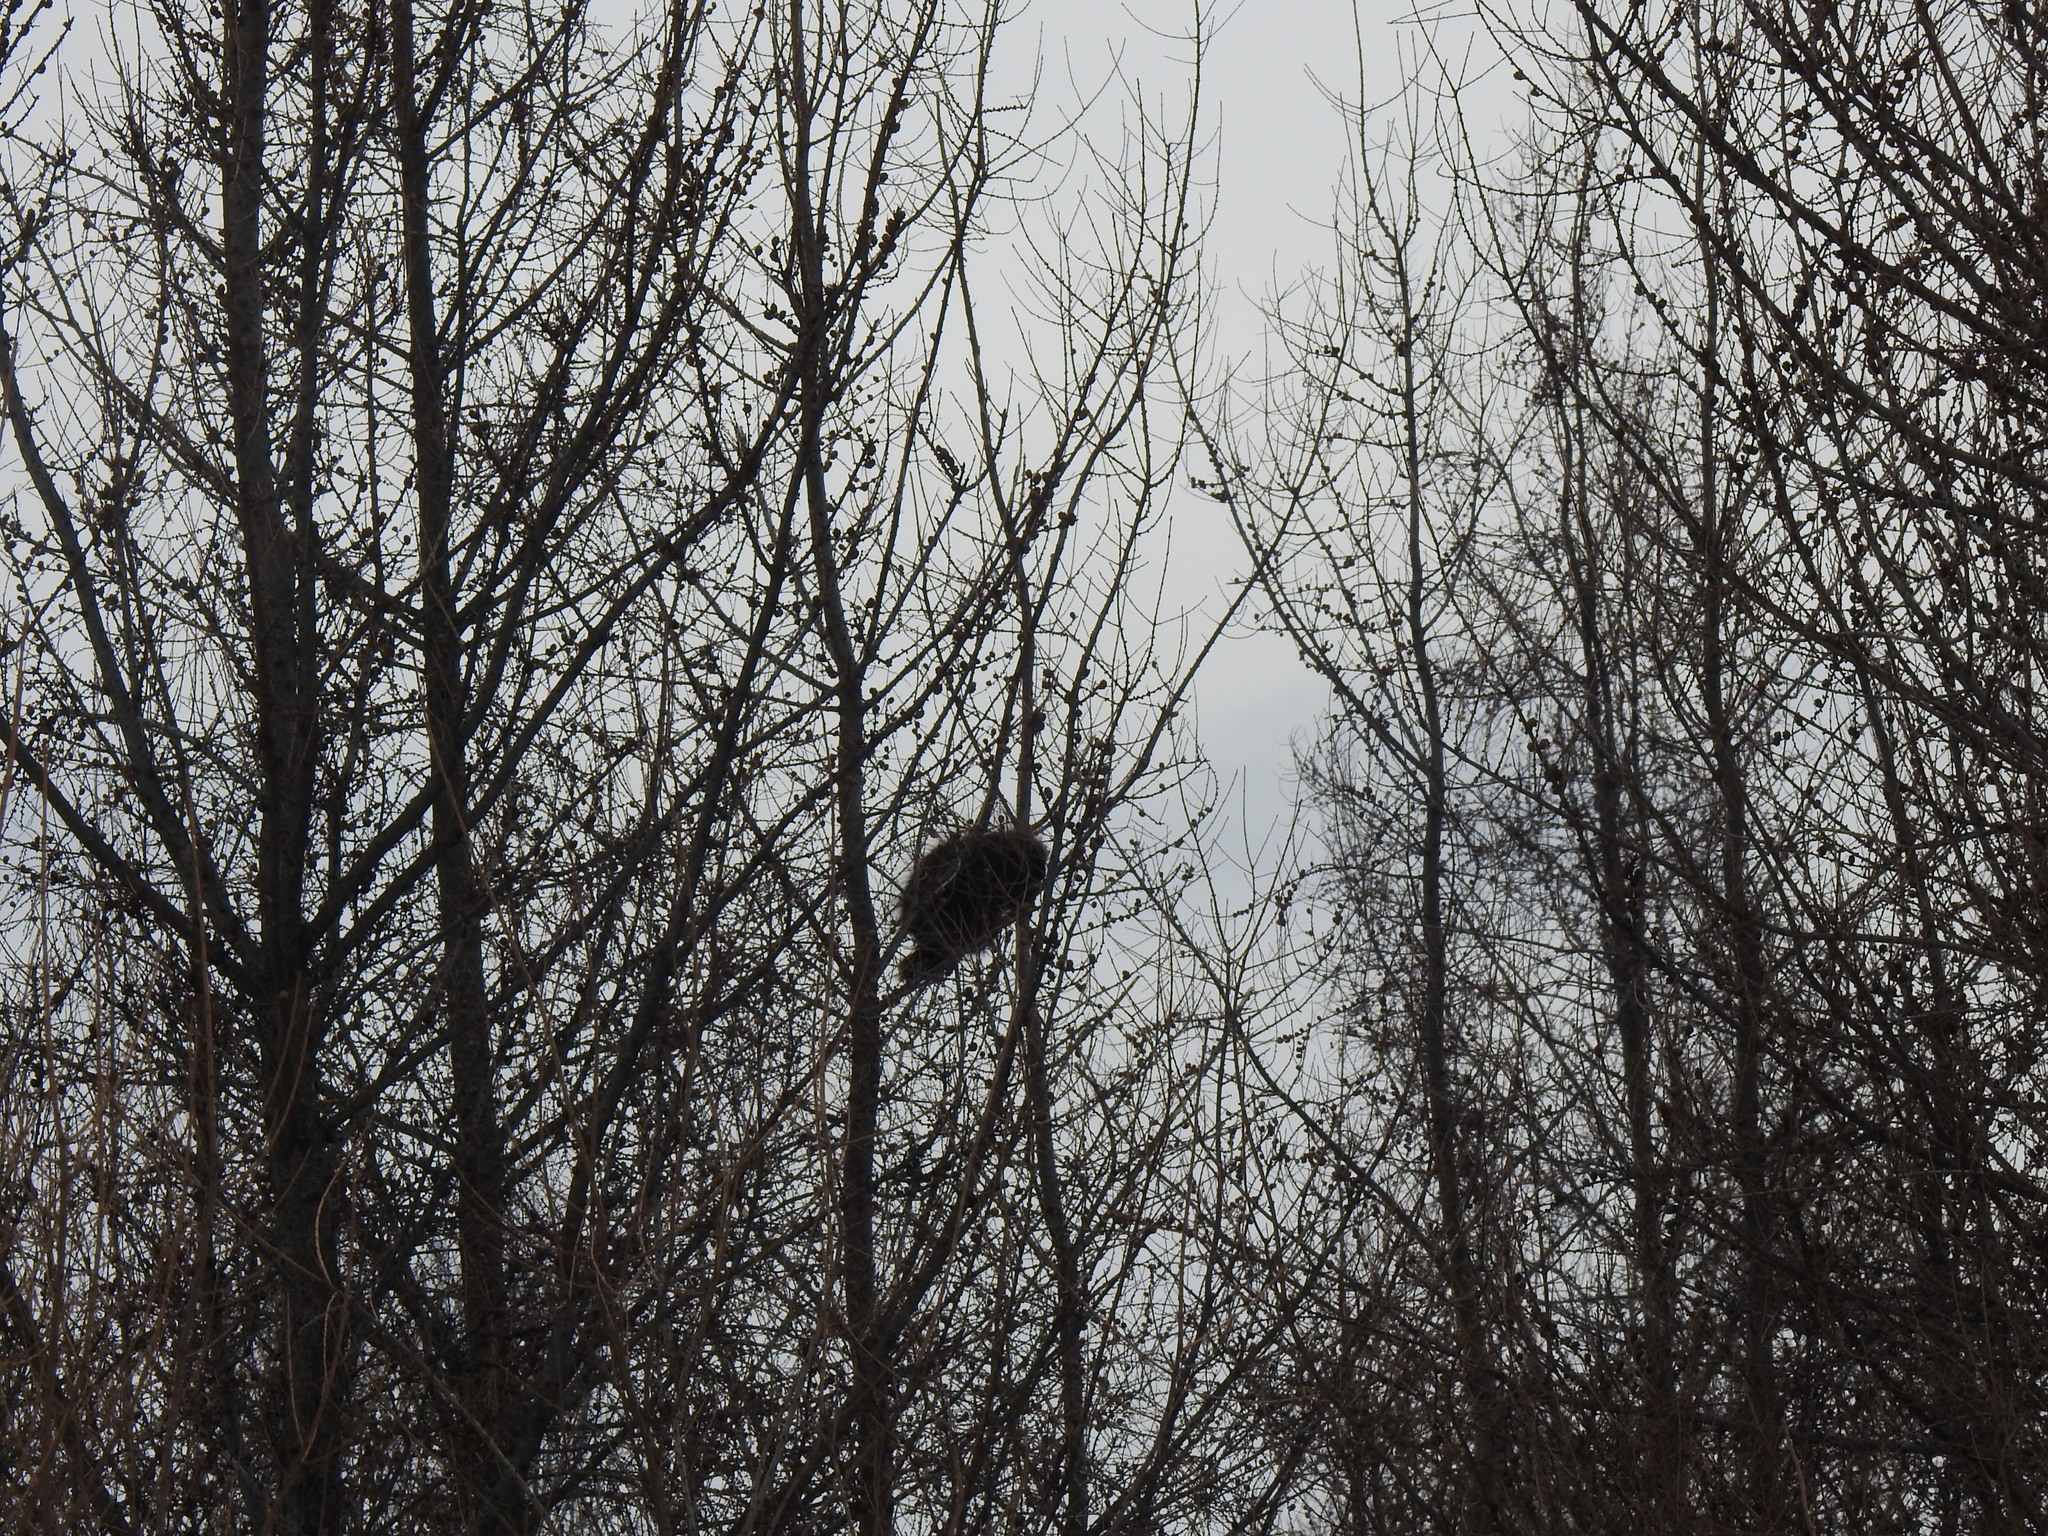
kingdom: Animalia
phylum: Chordata
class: Mammalia
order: Rodentia
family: Erethizontidae
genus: Erethizon
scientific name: Erethizon dorsatus
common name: North american porcupine
